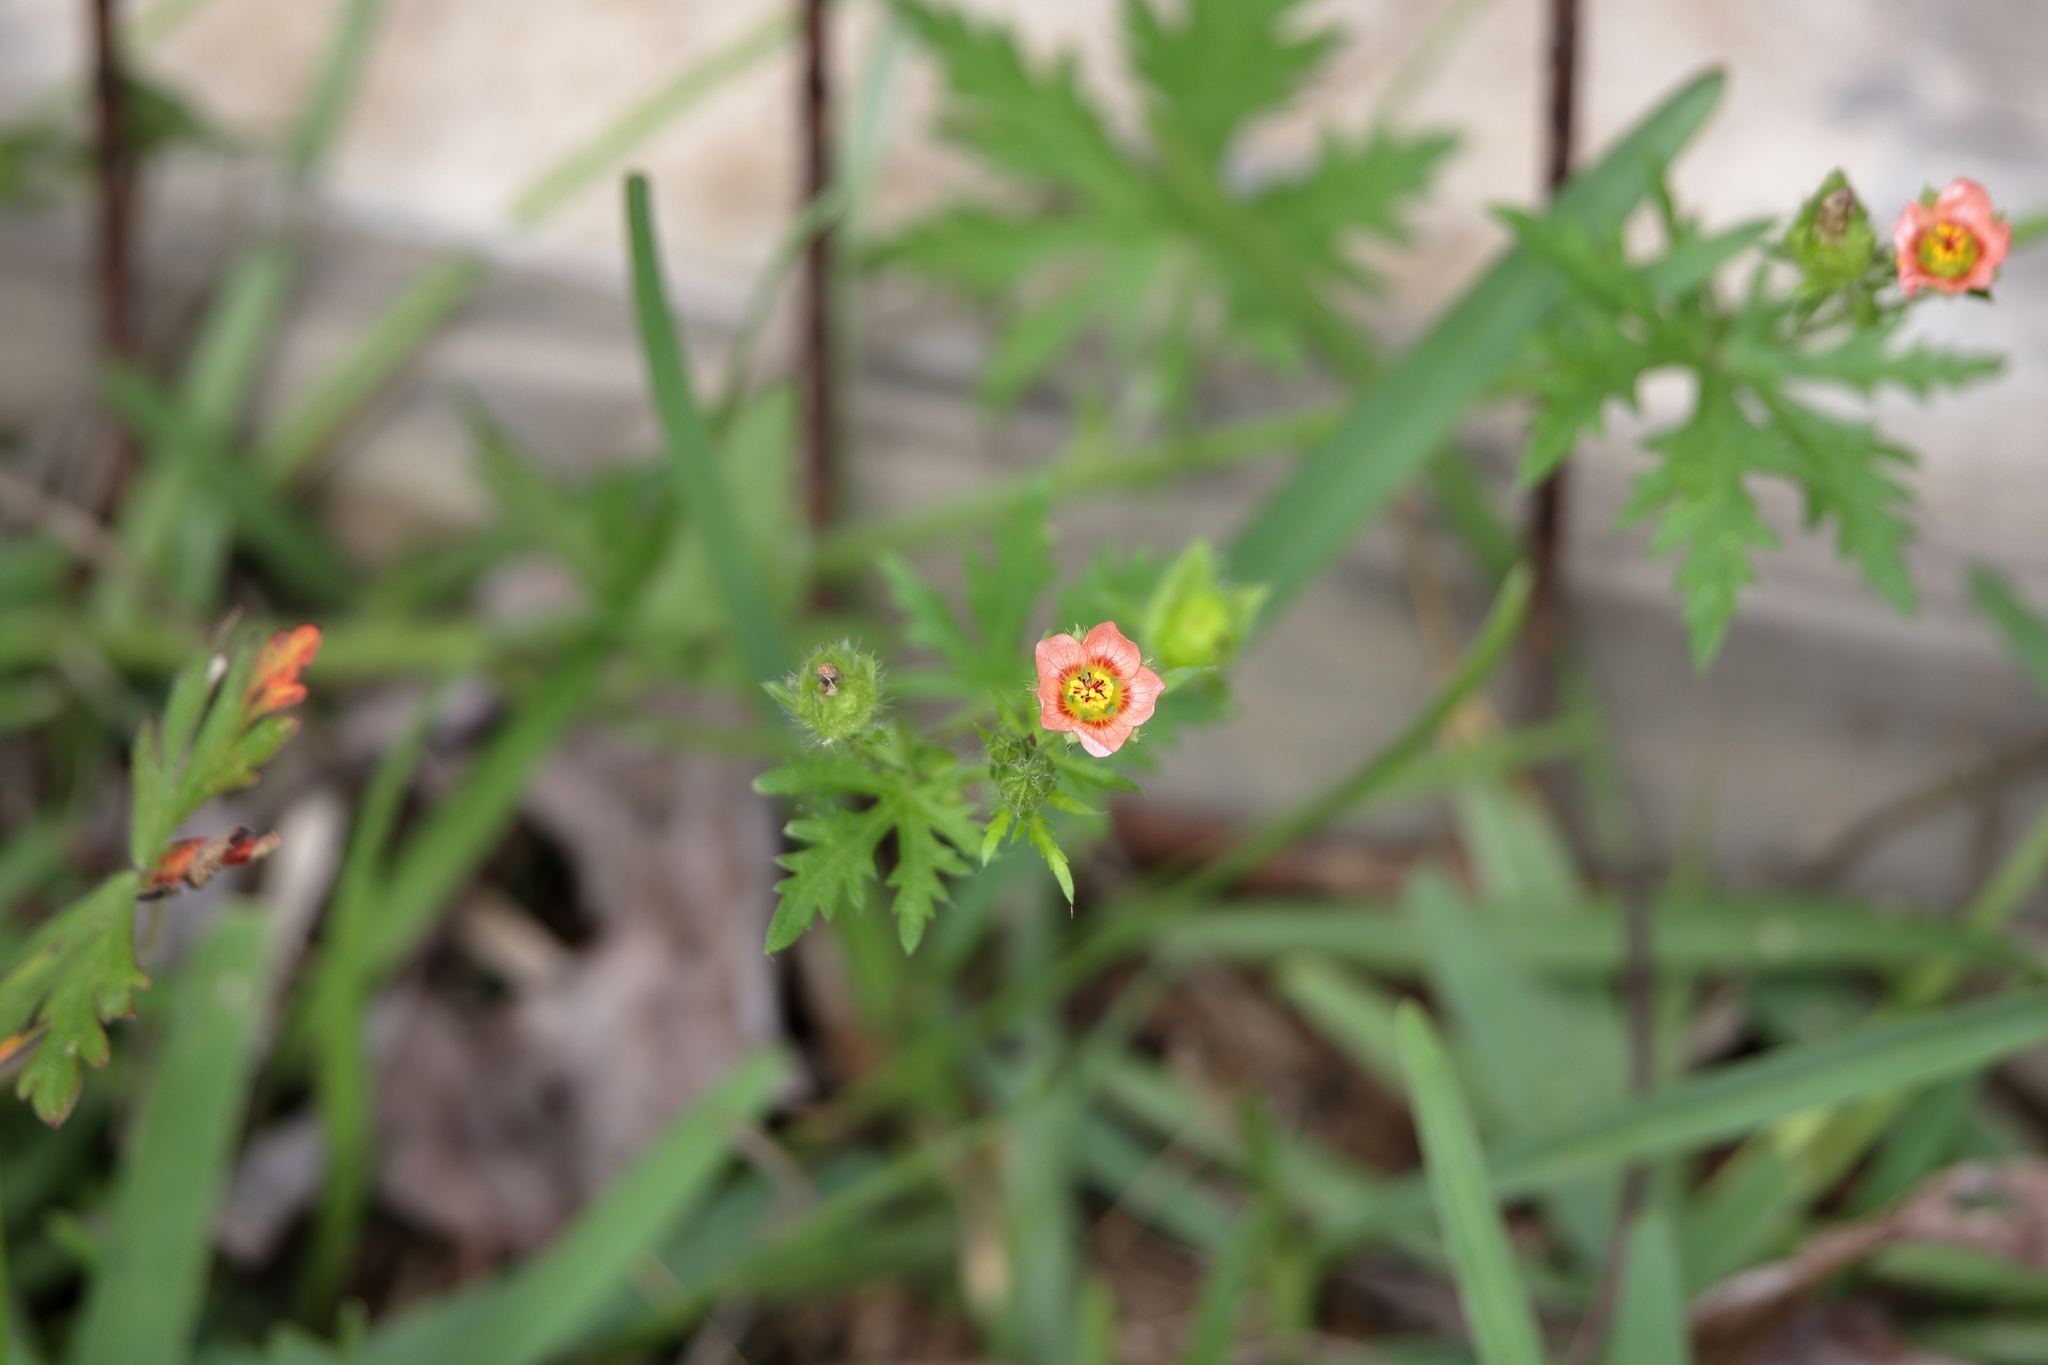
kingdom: Plantae
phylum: Tracheophyta
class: Magnoliopsida
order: Malvales
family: Malvaceae
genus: Modiola
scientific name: Modiola caroliniana
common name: Carolina bristlemallow
